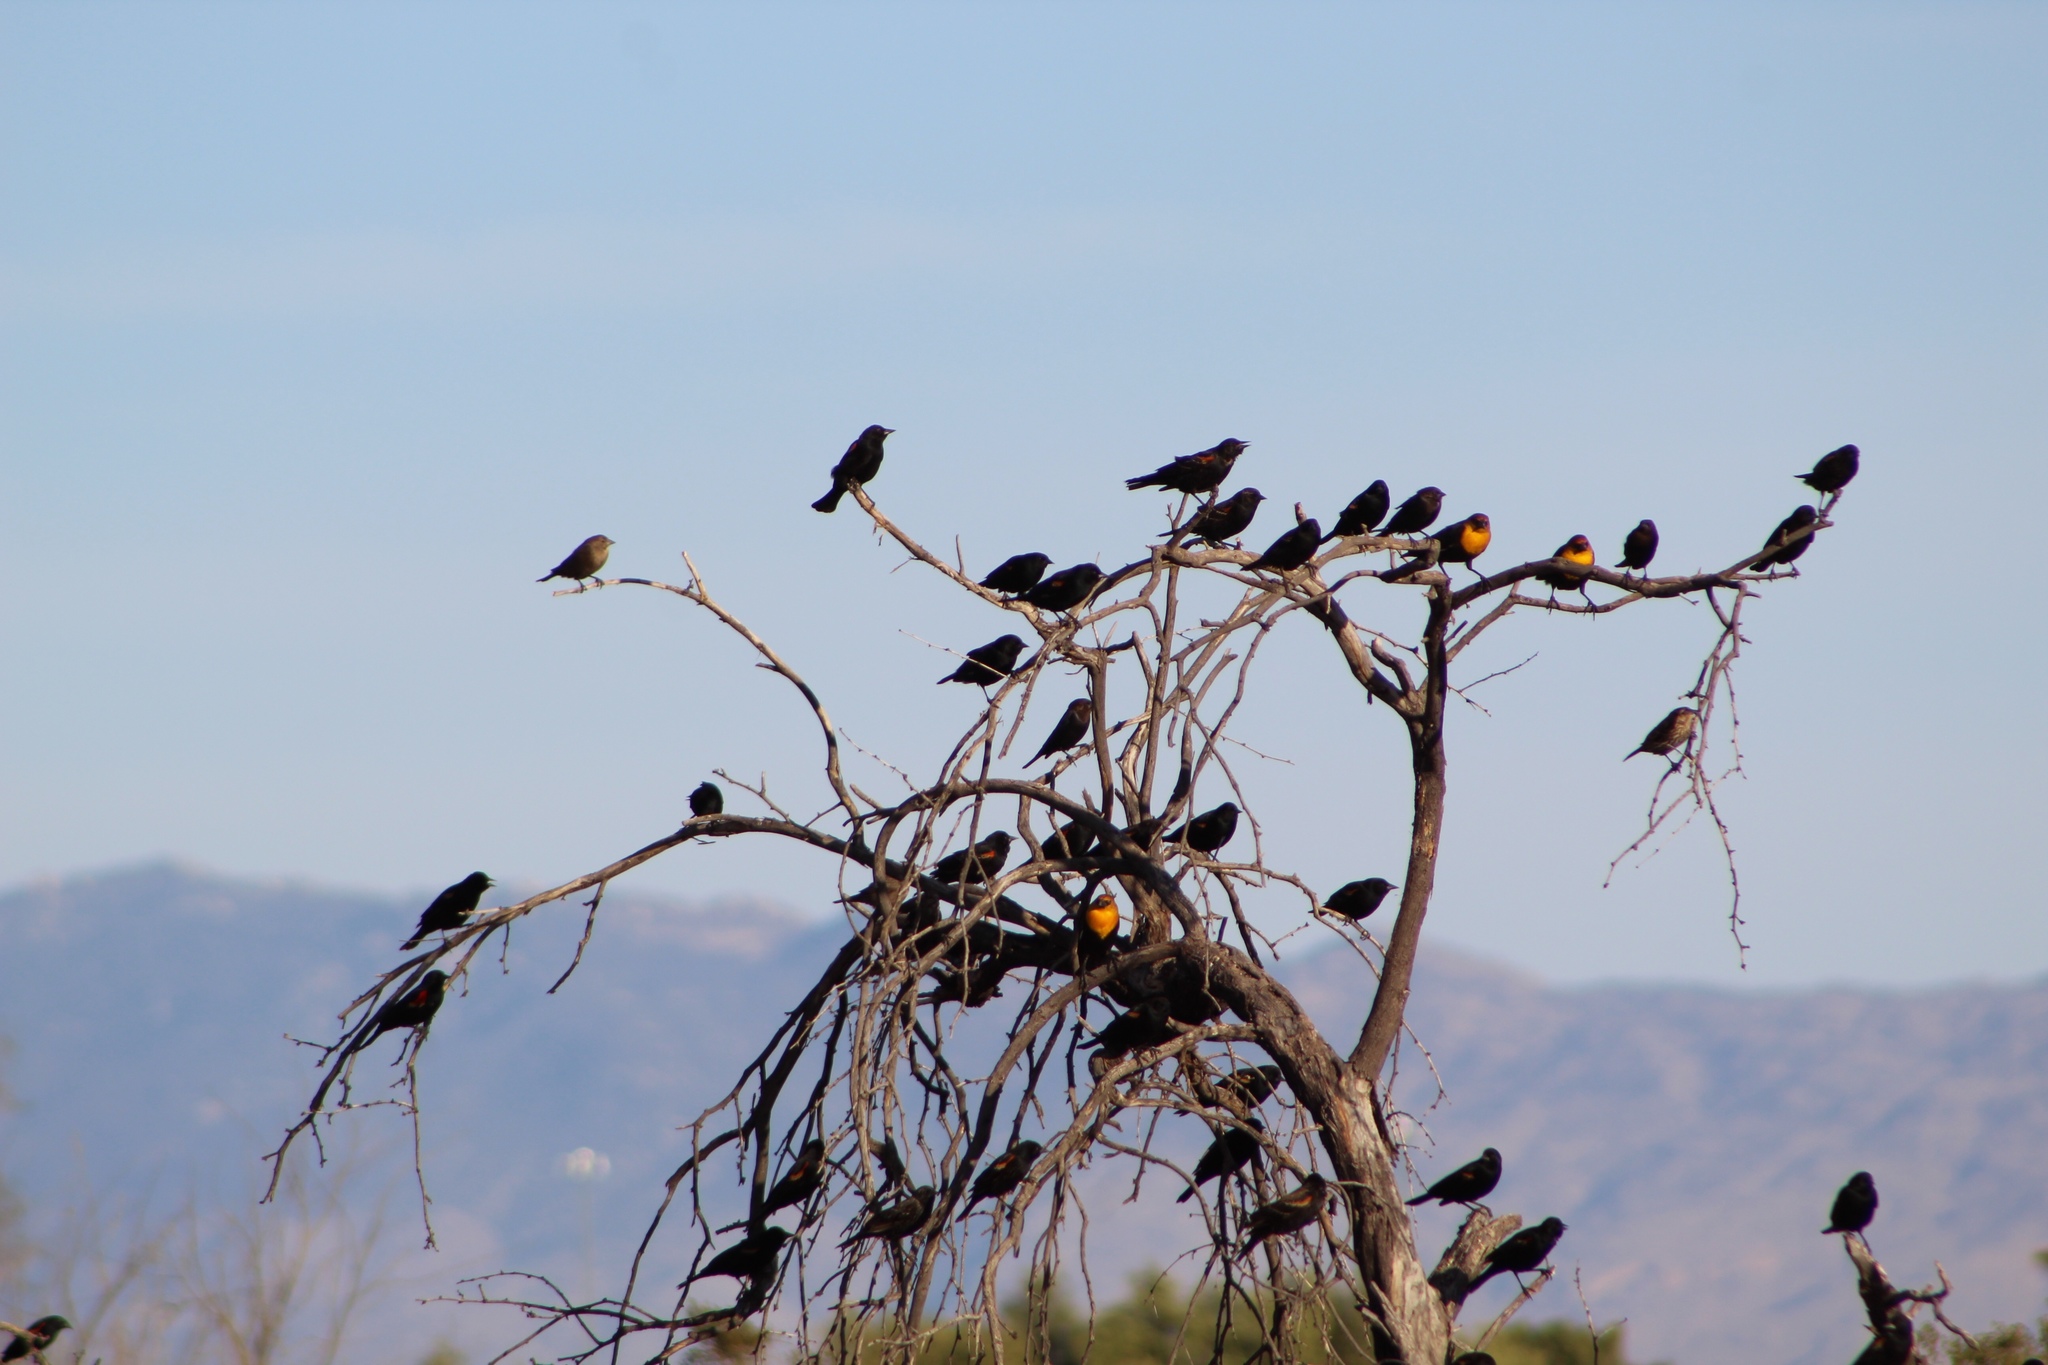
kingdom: Animalia
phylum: Chordata
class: Aves
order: Passeriformes
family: Icteridae
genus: Xanthocephalus
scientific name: Xanthocephalus xanthocephalus
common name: Yellow-headed blackbird
